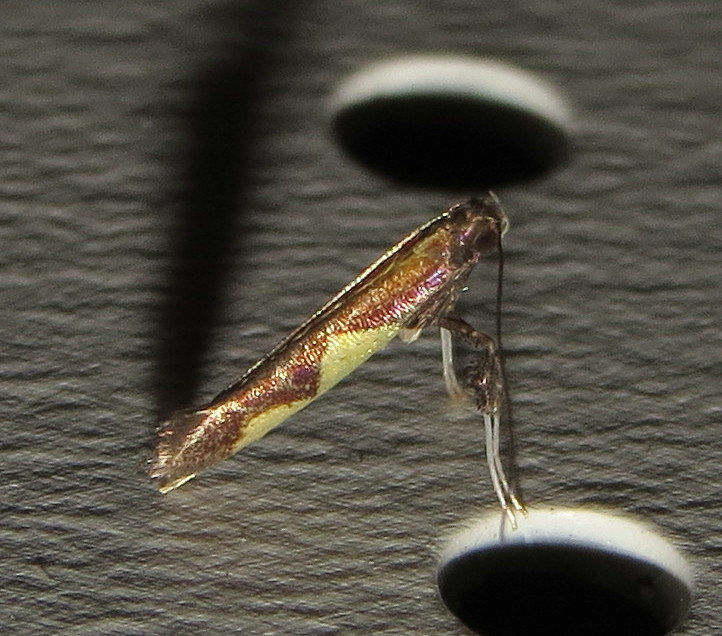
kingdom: Animalia
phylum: Arthropoda
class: Insecta
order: Lepidoptera
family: Gracillariidae
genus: Caloptilia
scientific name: Caloptilia bimaculatella
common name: Maple caloptilia moth
